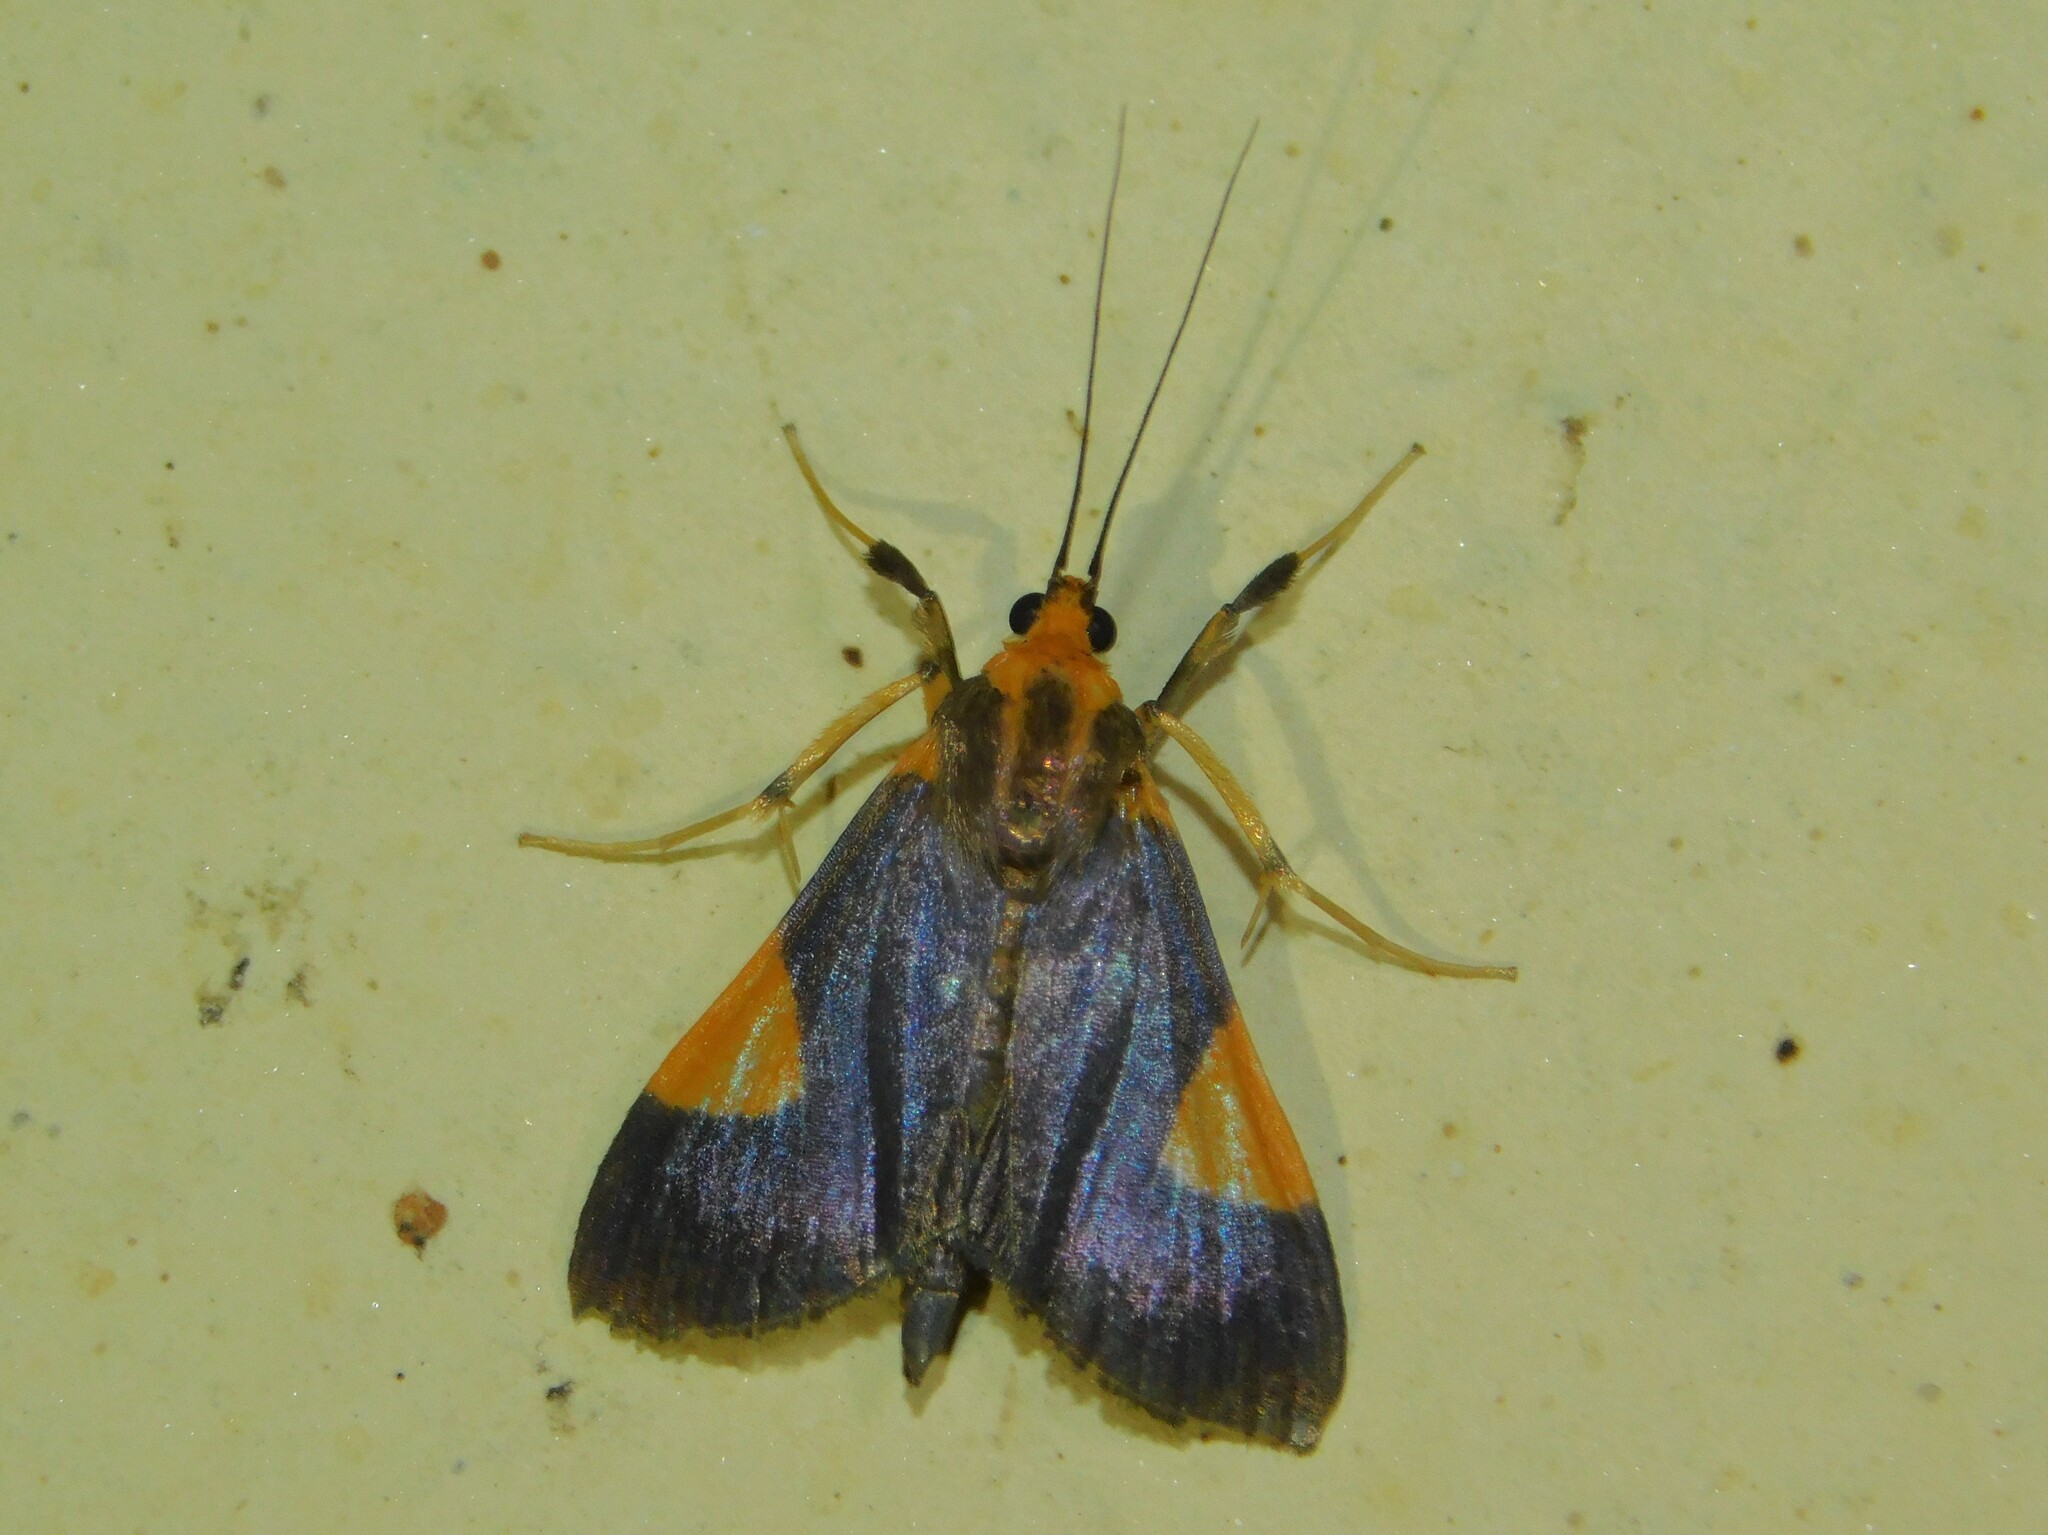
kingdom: Animalia
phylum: Arthropoda
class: Insecta
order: Lepidoptera
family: Crambidae
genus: Ulopeza
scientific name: Ulopeza conigeralis
